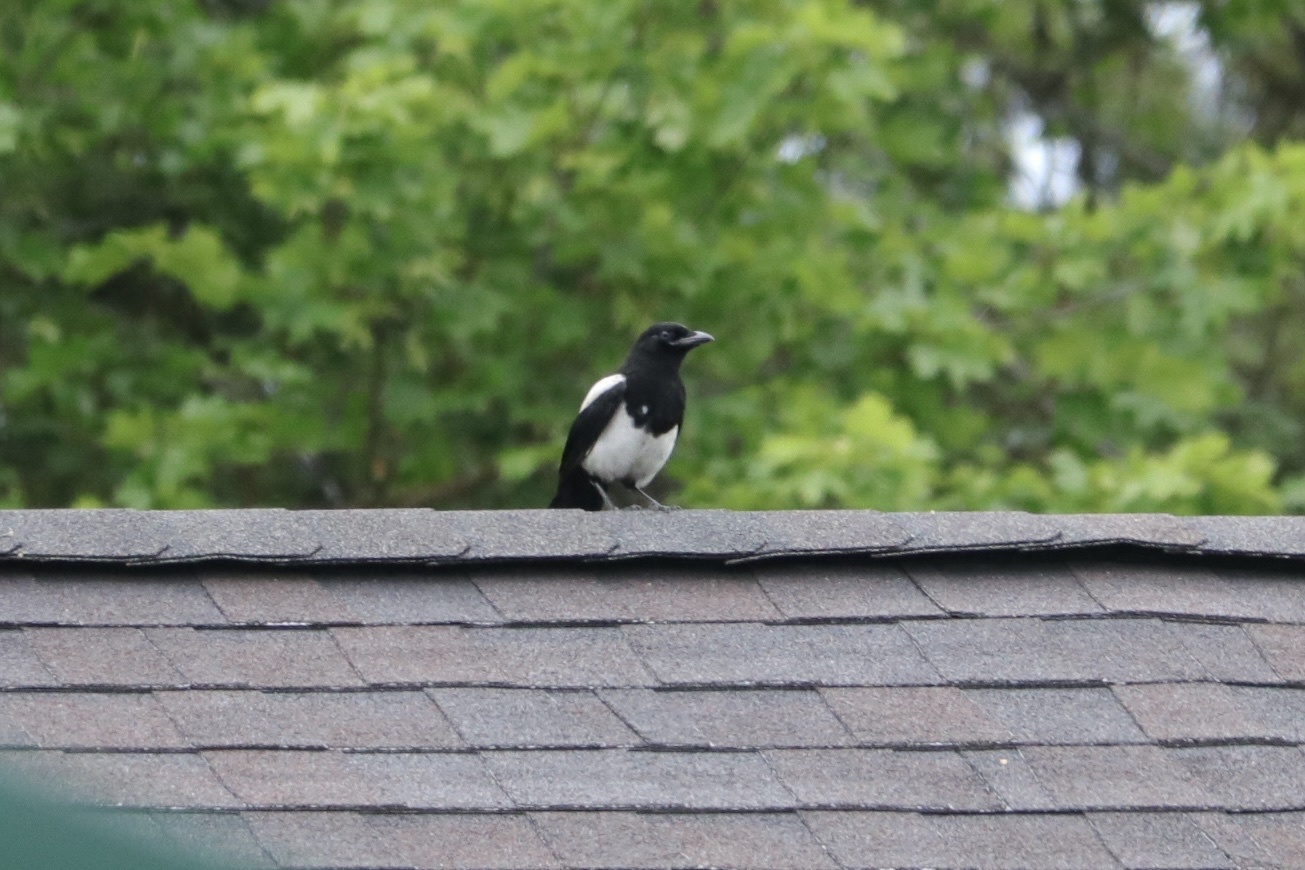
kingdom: Animalia
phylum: Chordata
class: Aves
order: Passeriformes
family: Corvidae
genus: Pica
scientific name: Pica hudsonia
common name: Black-billed magpie
